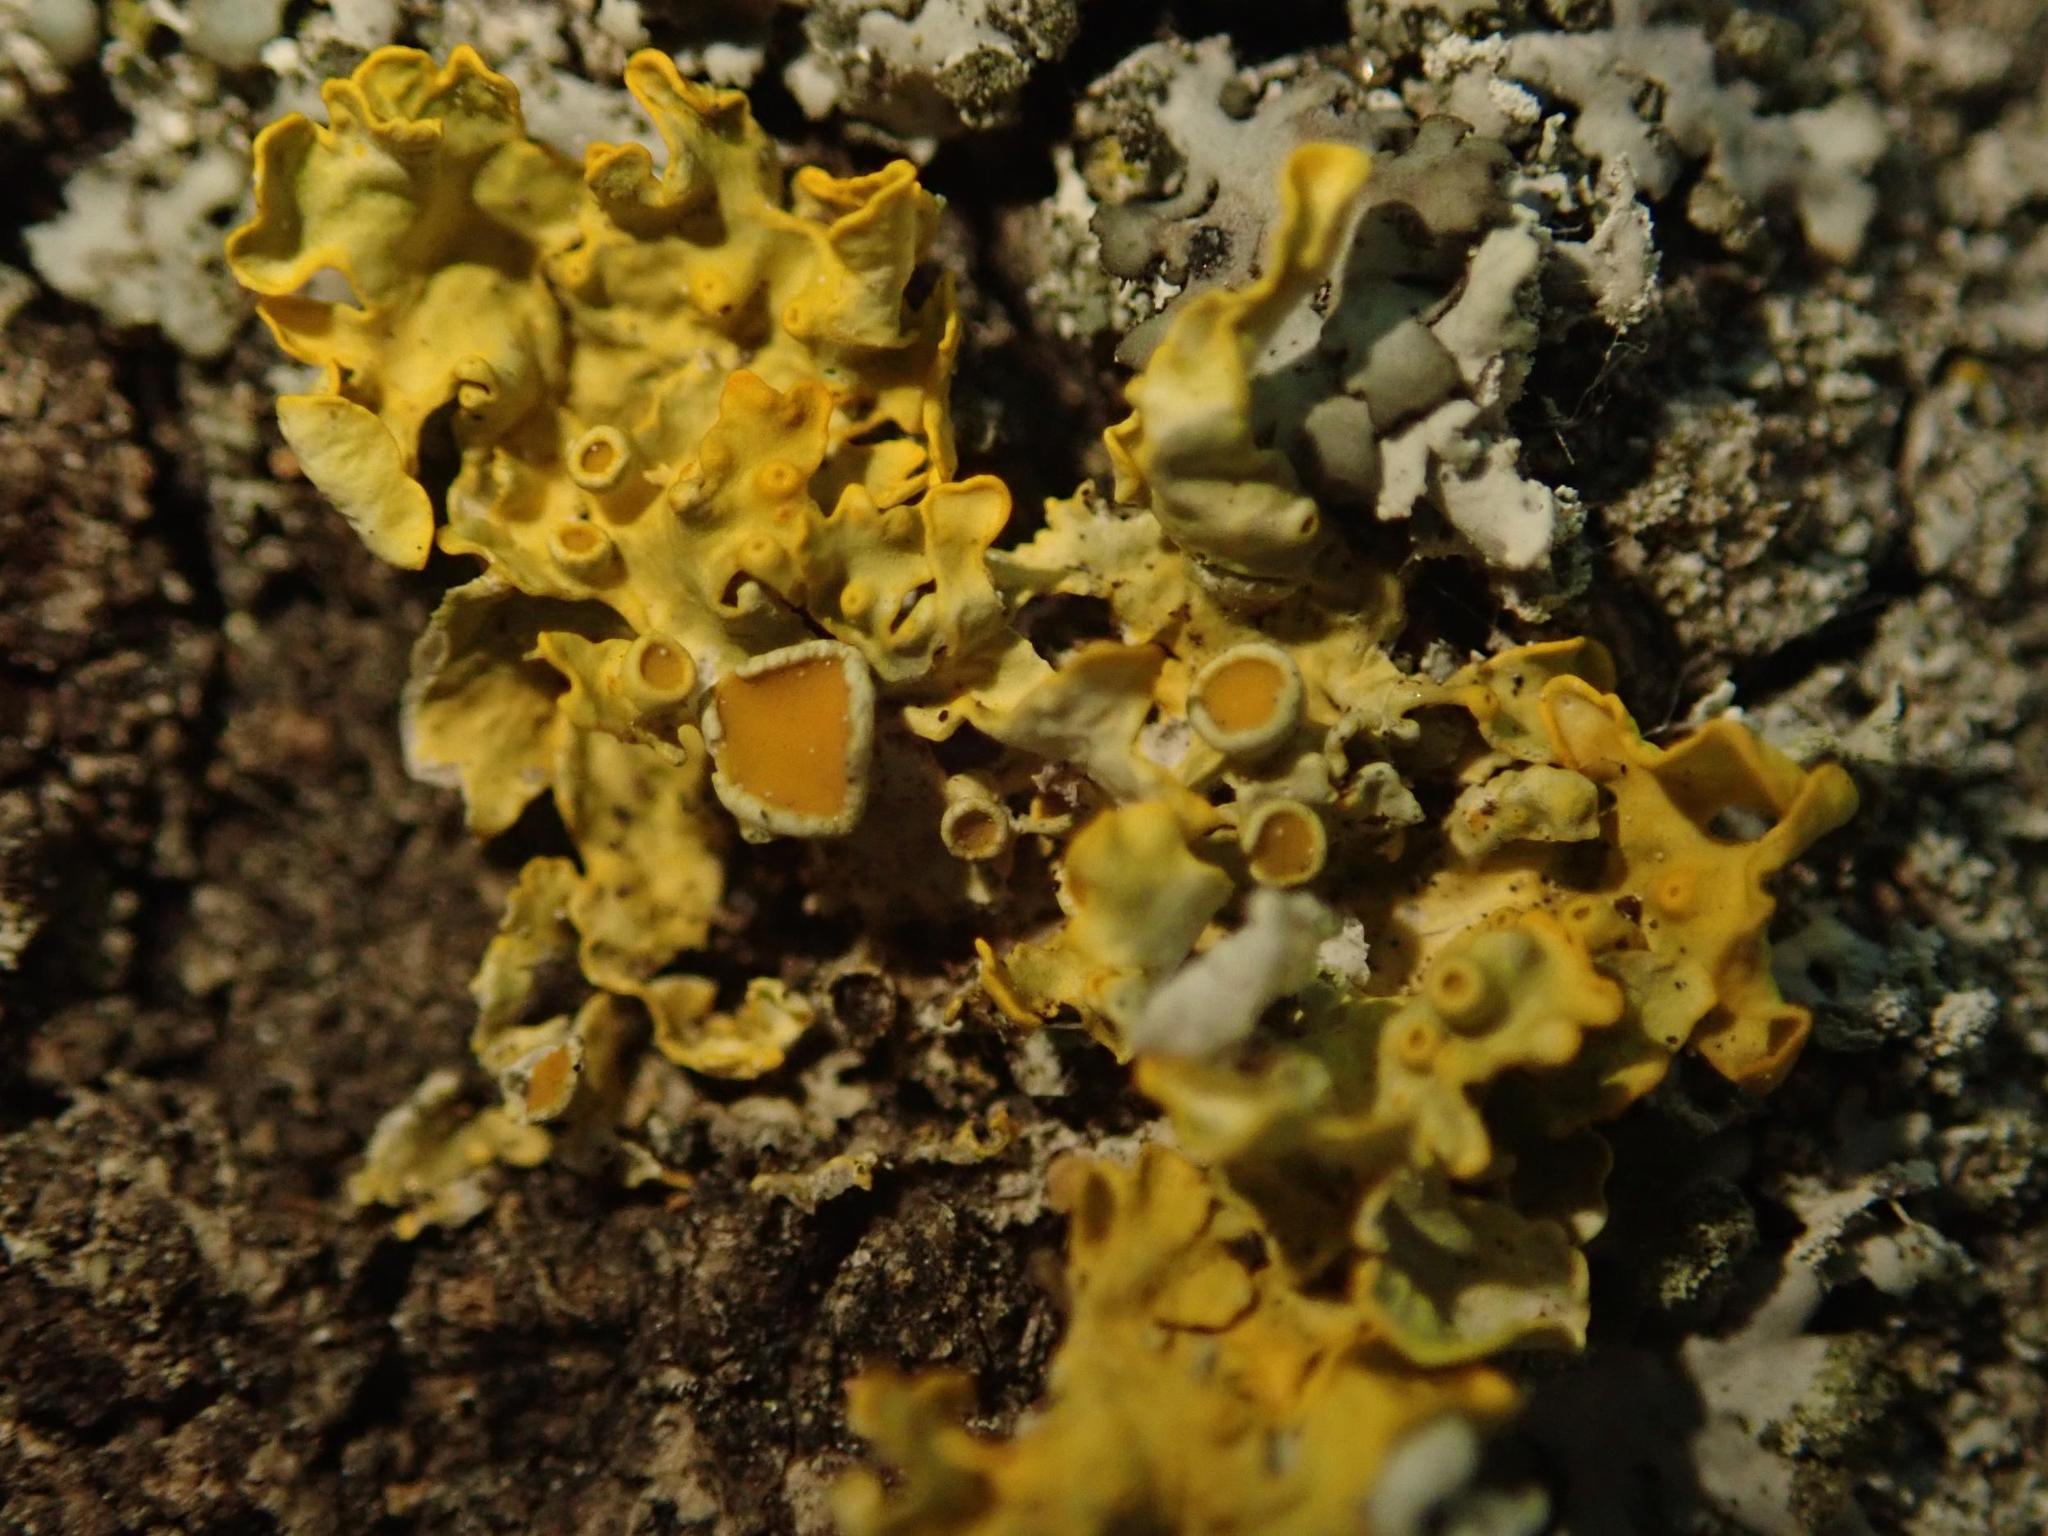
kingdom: Fungi
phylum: Ascomycota
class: Lecanoromycetes
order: Teloschistales
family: Teloschistaceae
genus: Xanthoria
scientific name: Xanthoria parietina
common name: Common orange lichen
